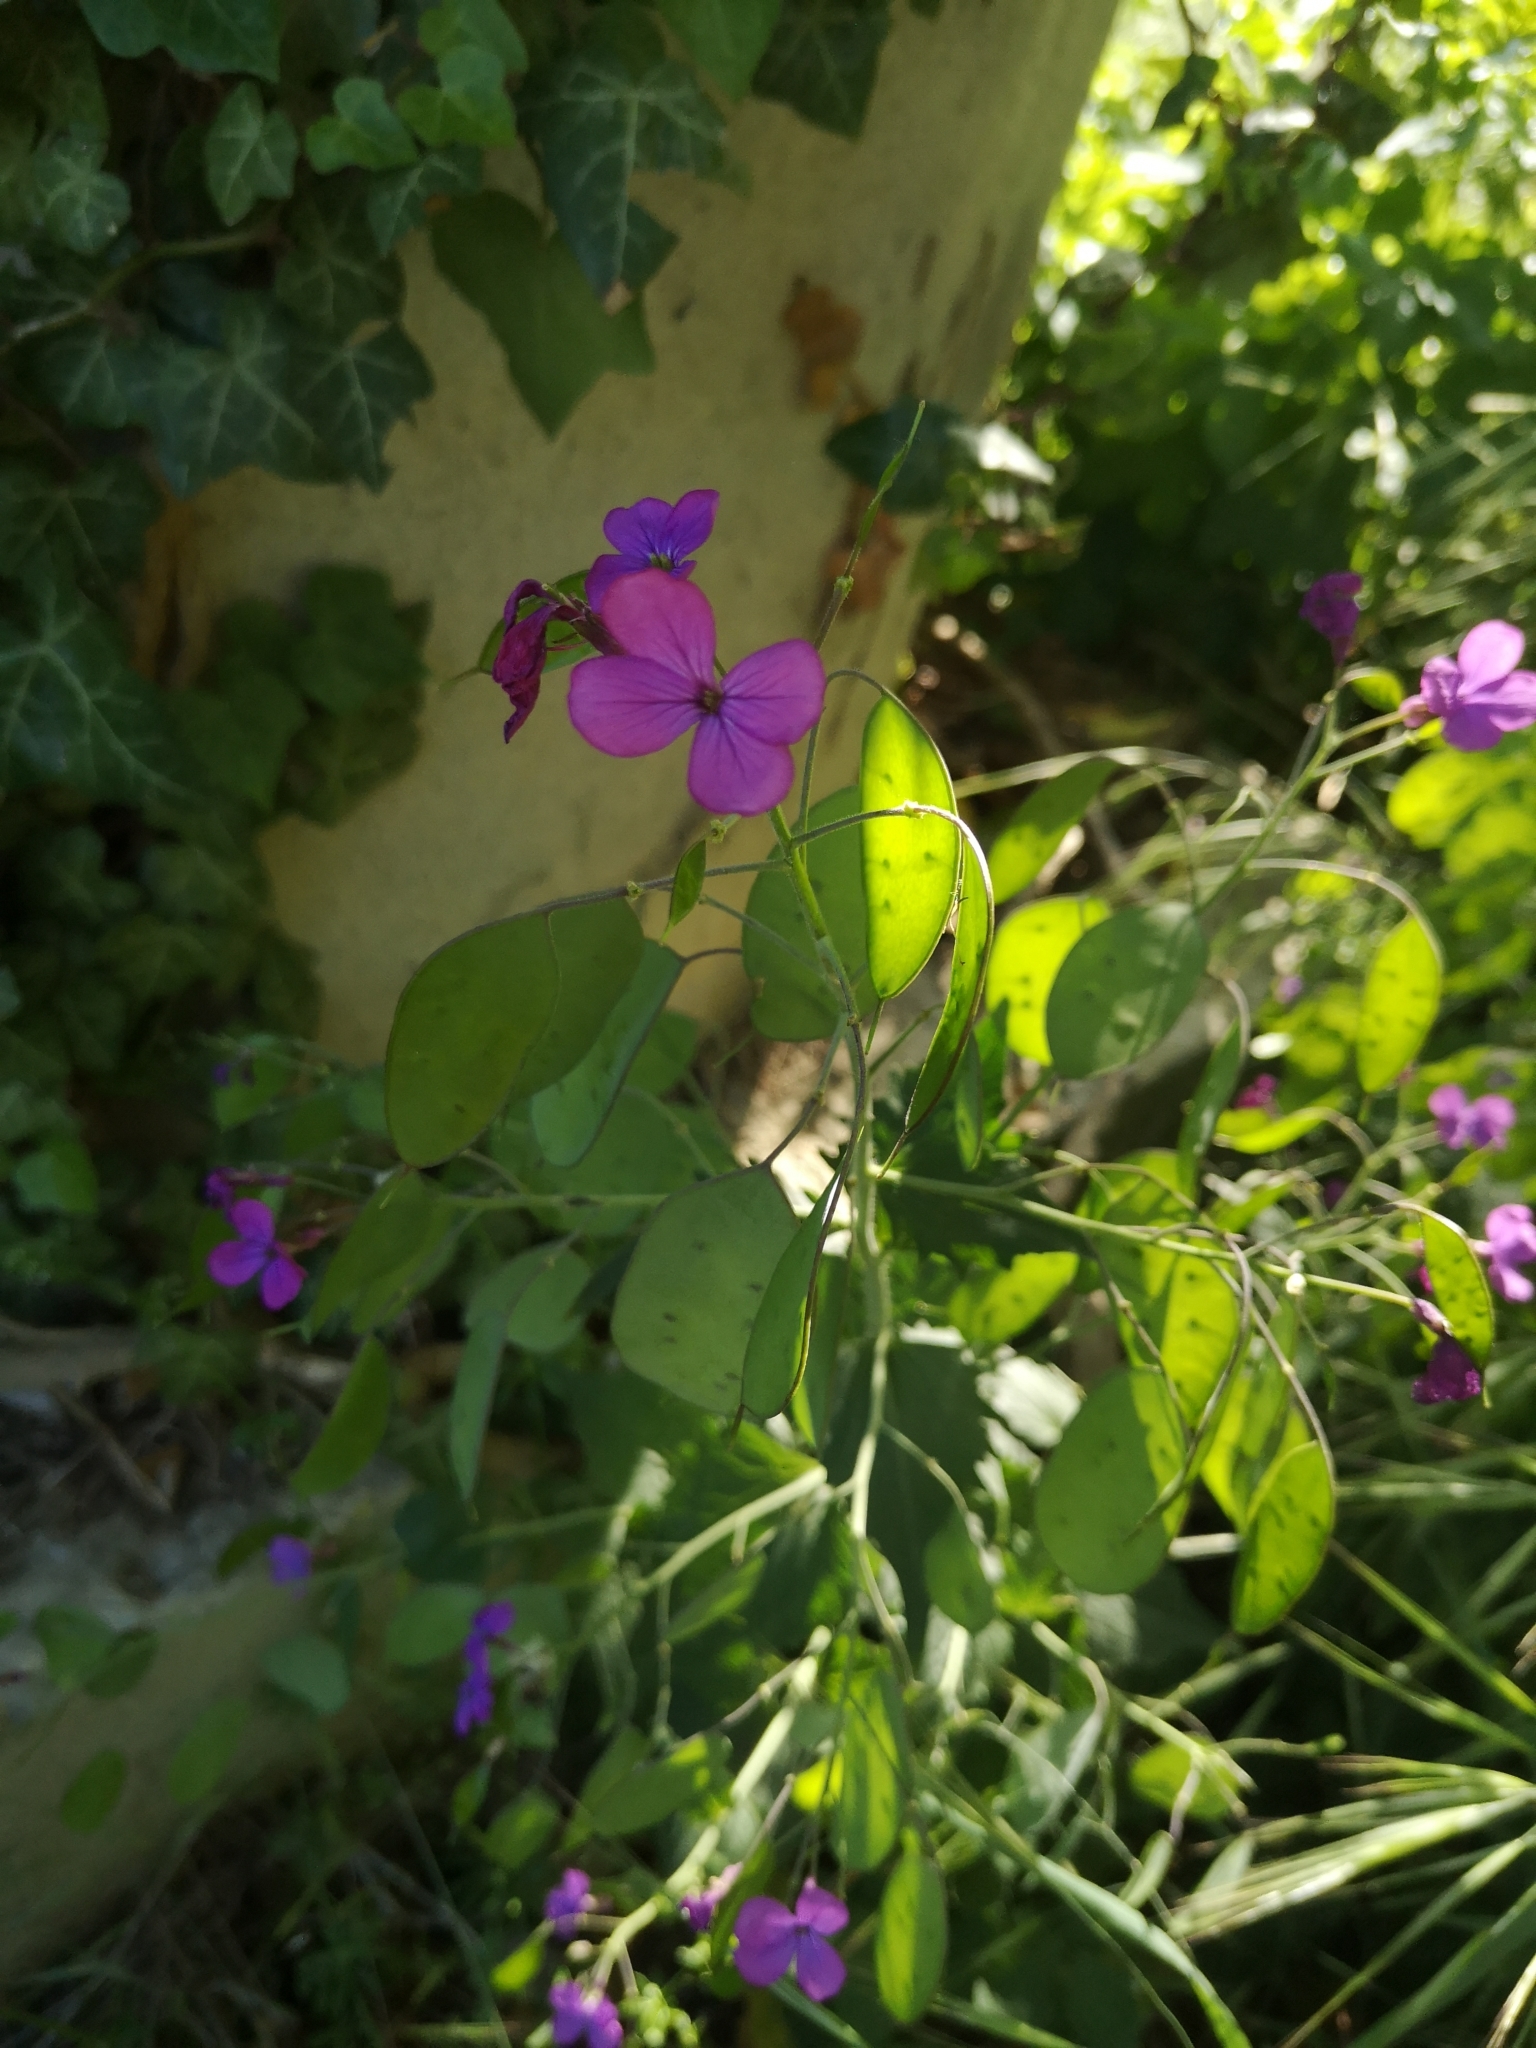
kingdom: Plantae
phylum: Tracheophyta
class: Magnoliopsida
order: Brassicales
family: Brassicaceae
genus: Lunaria
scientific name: Lunaria annua
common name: Honesty
